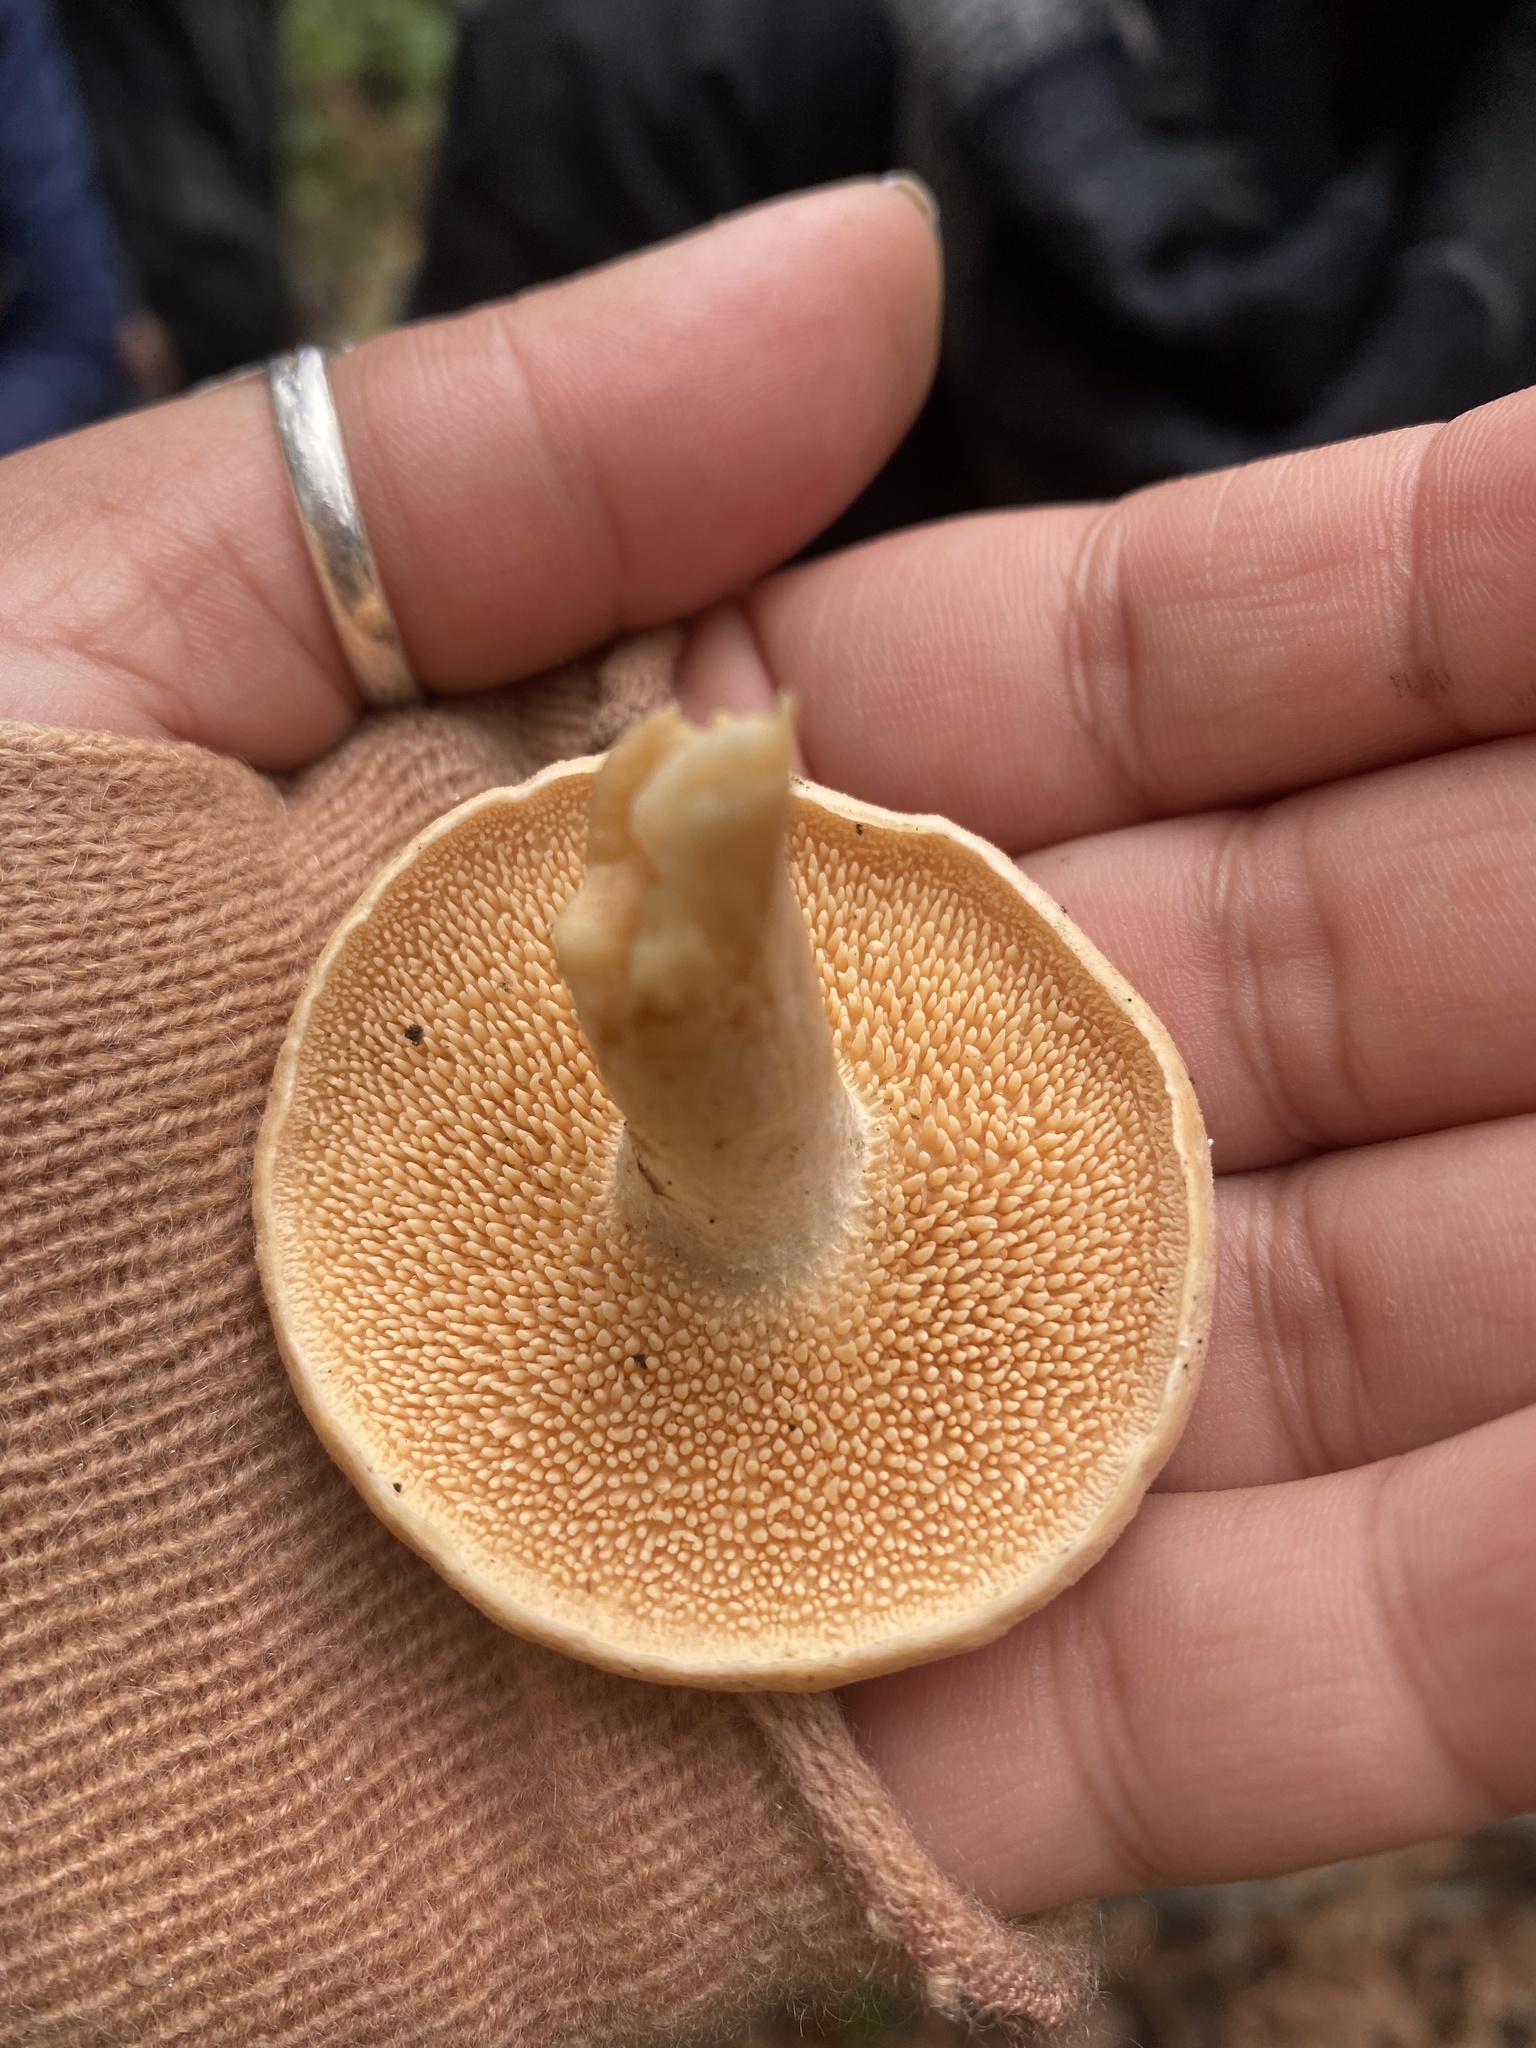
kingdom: Fungi
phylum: Basidiomycota
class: Agaricomycetes
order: Cantharellales
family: Hydnaceae
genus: Hydnum
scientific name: Hydnum oregonense
